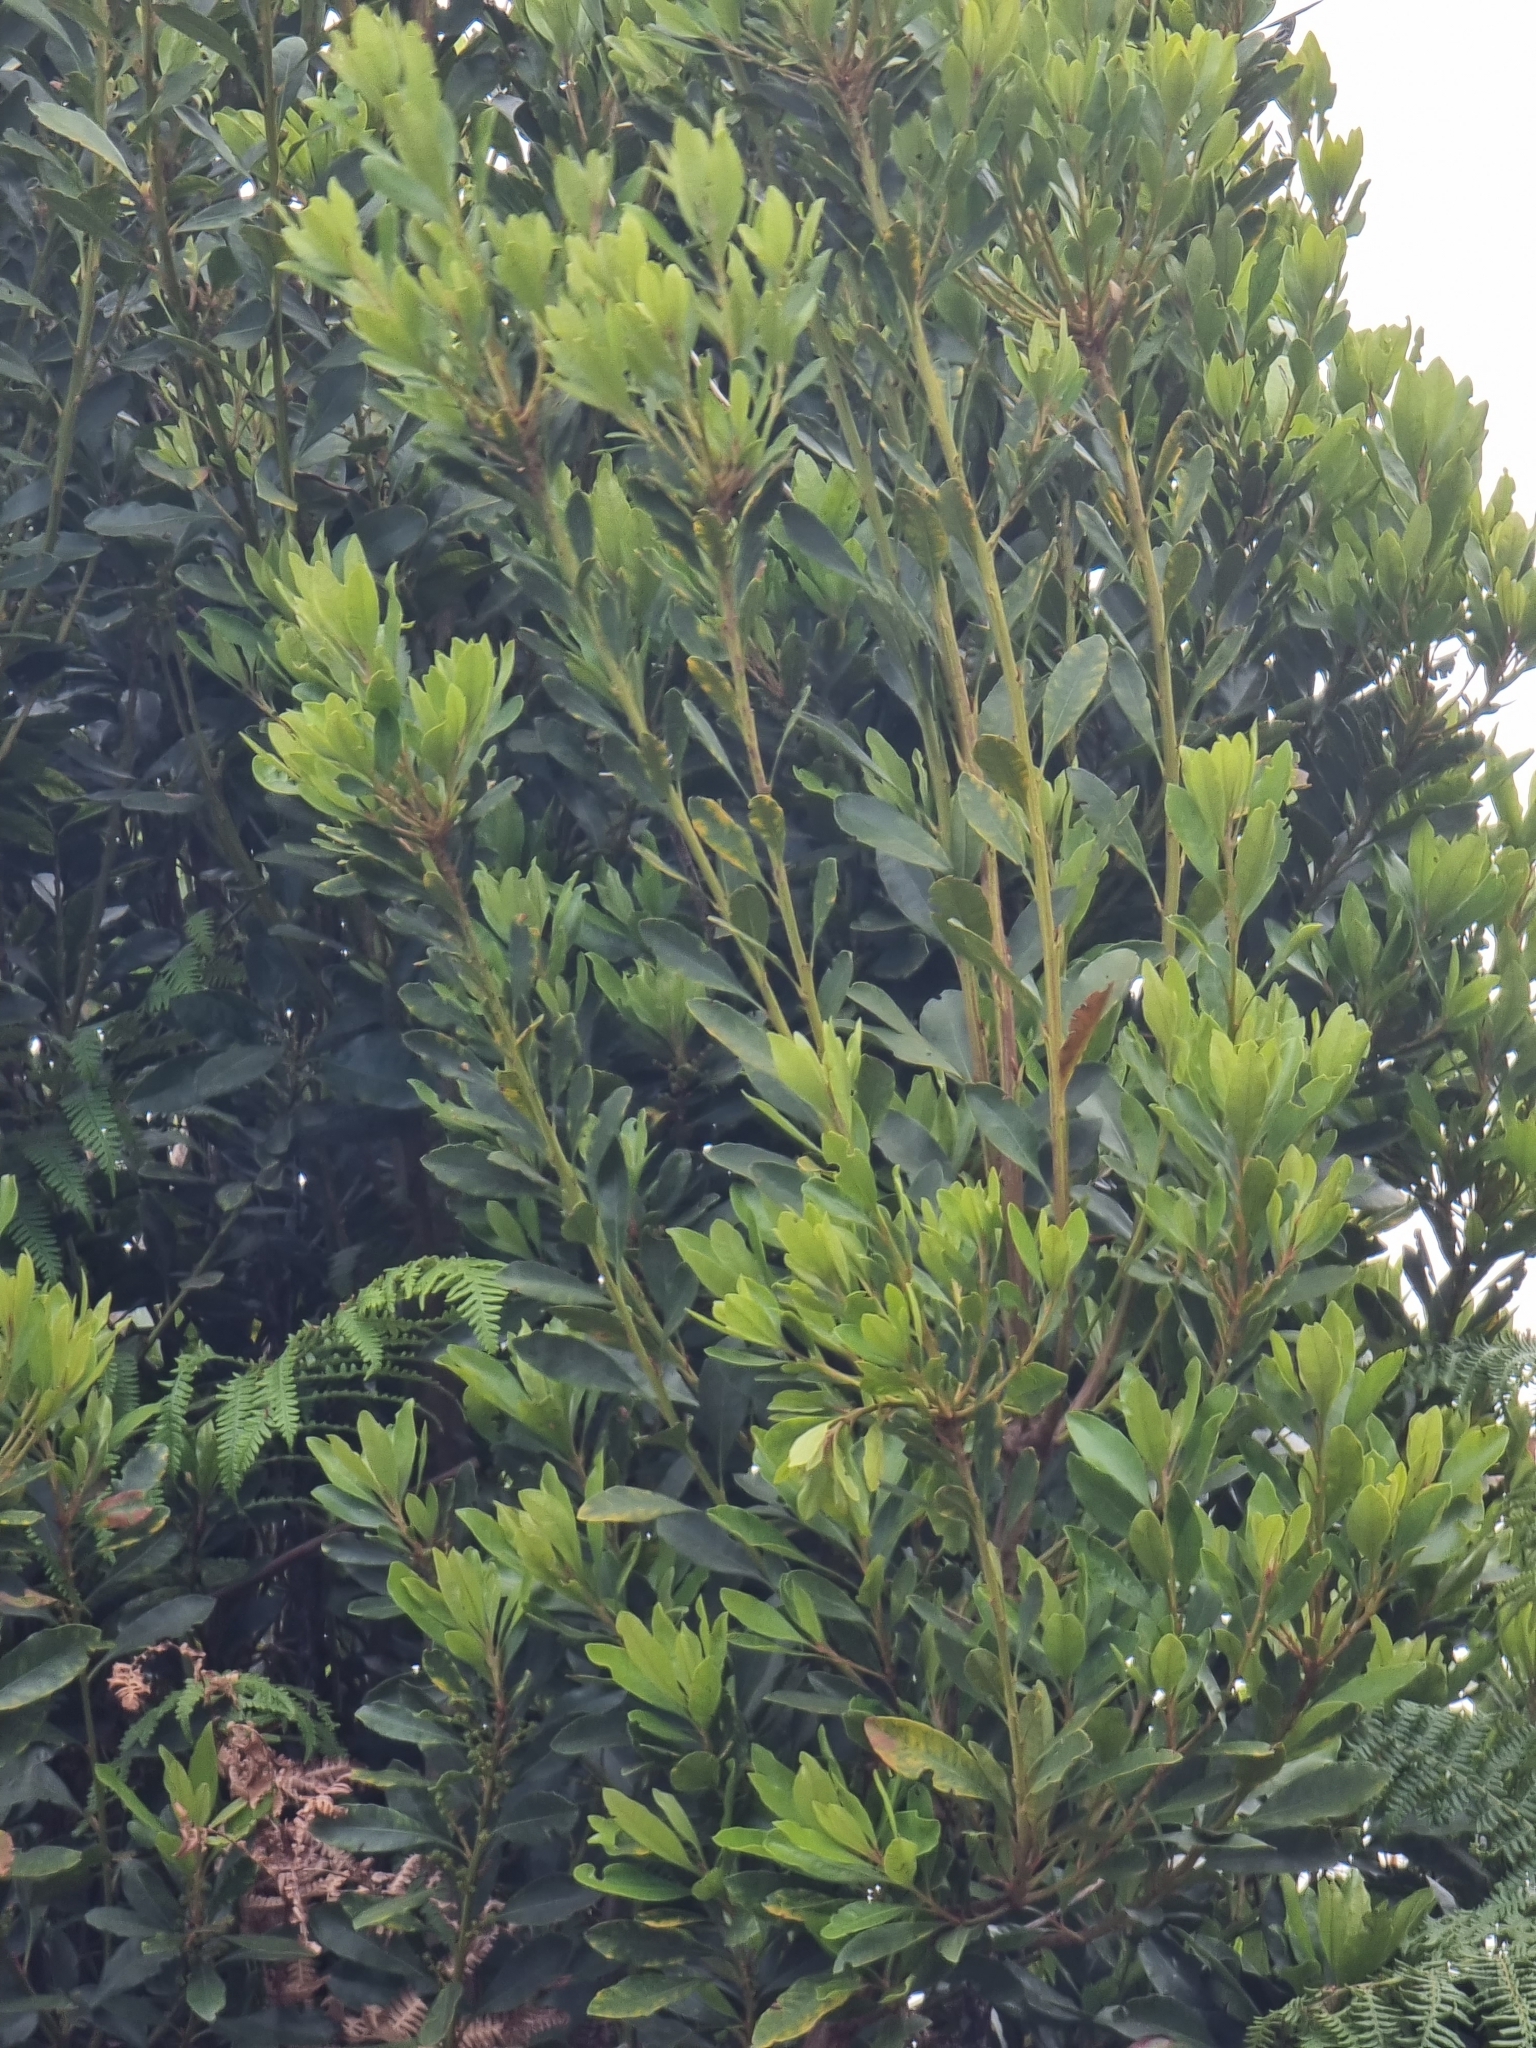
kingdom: Plantae
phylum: Tracheophyta
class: Magnoliopsida
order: Fagales
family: Myricaceae
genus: Morella
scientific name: Morella faya
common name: Firetree
